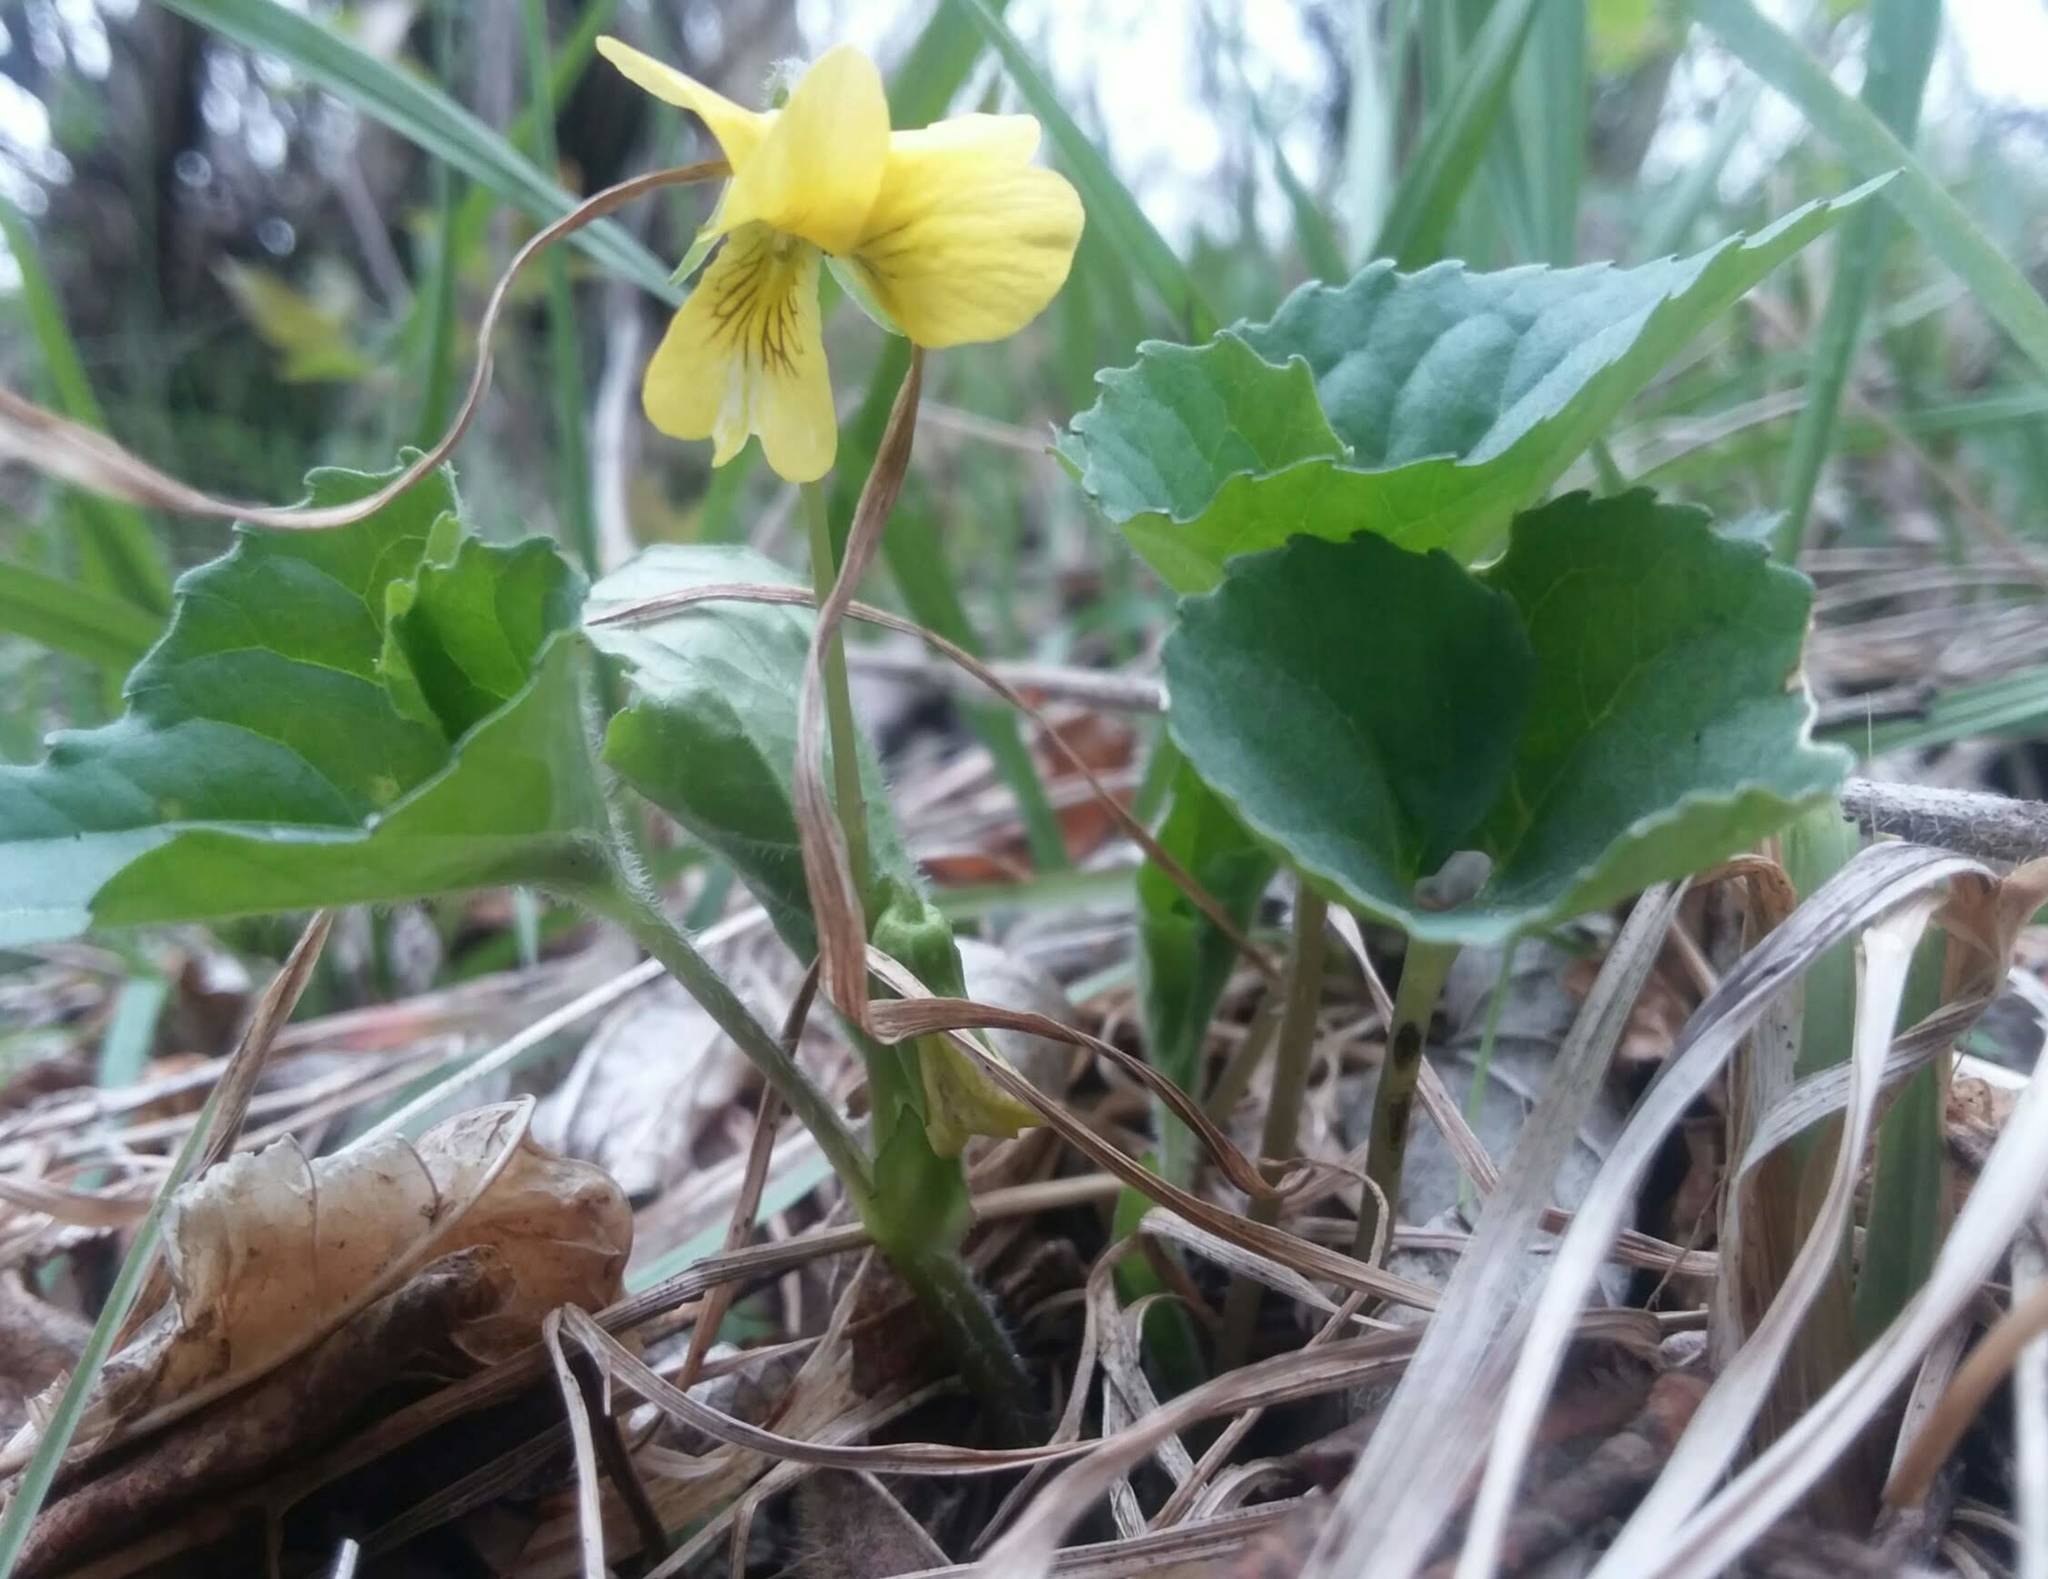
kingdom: Plantae
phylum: Tracheophyta
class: Magnoliopsida
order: Malpighiales
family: Violaceae
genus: Viola
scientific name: Viola eriocarpa
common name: Smooth yellow violet
